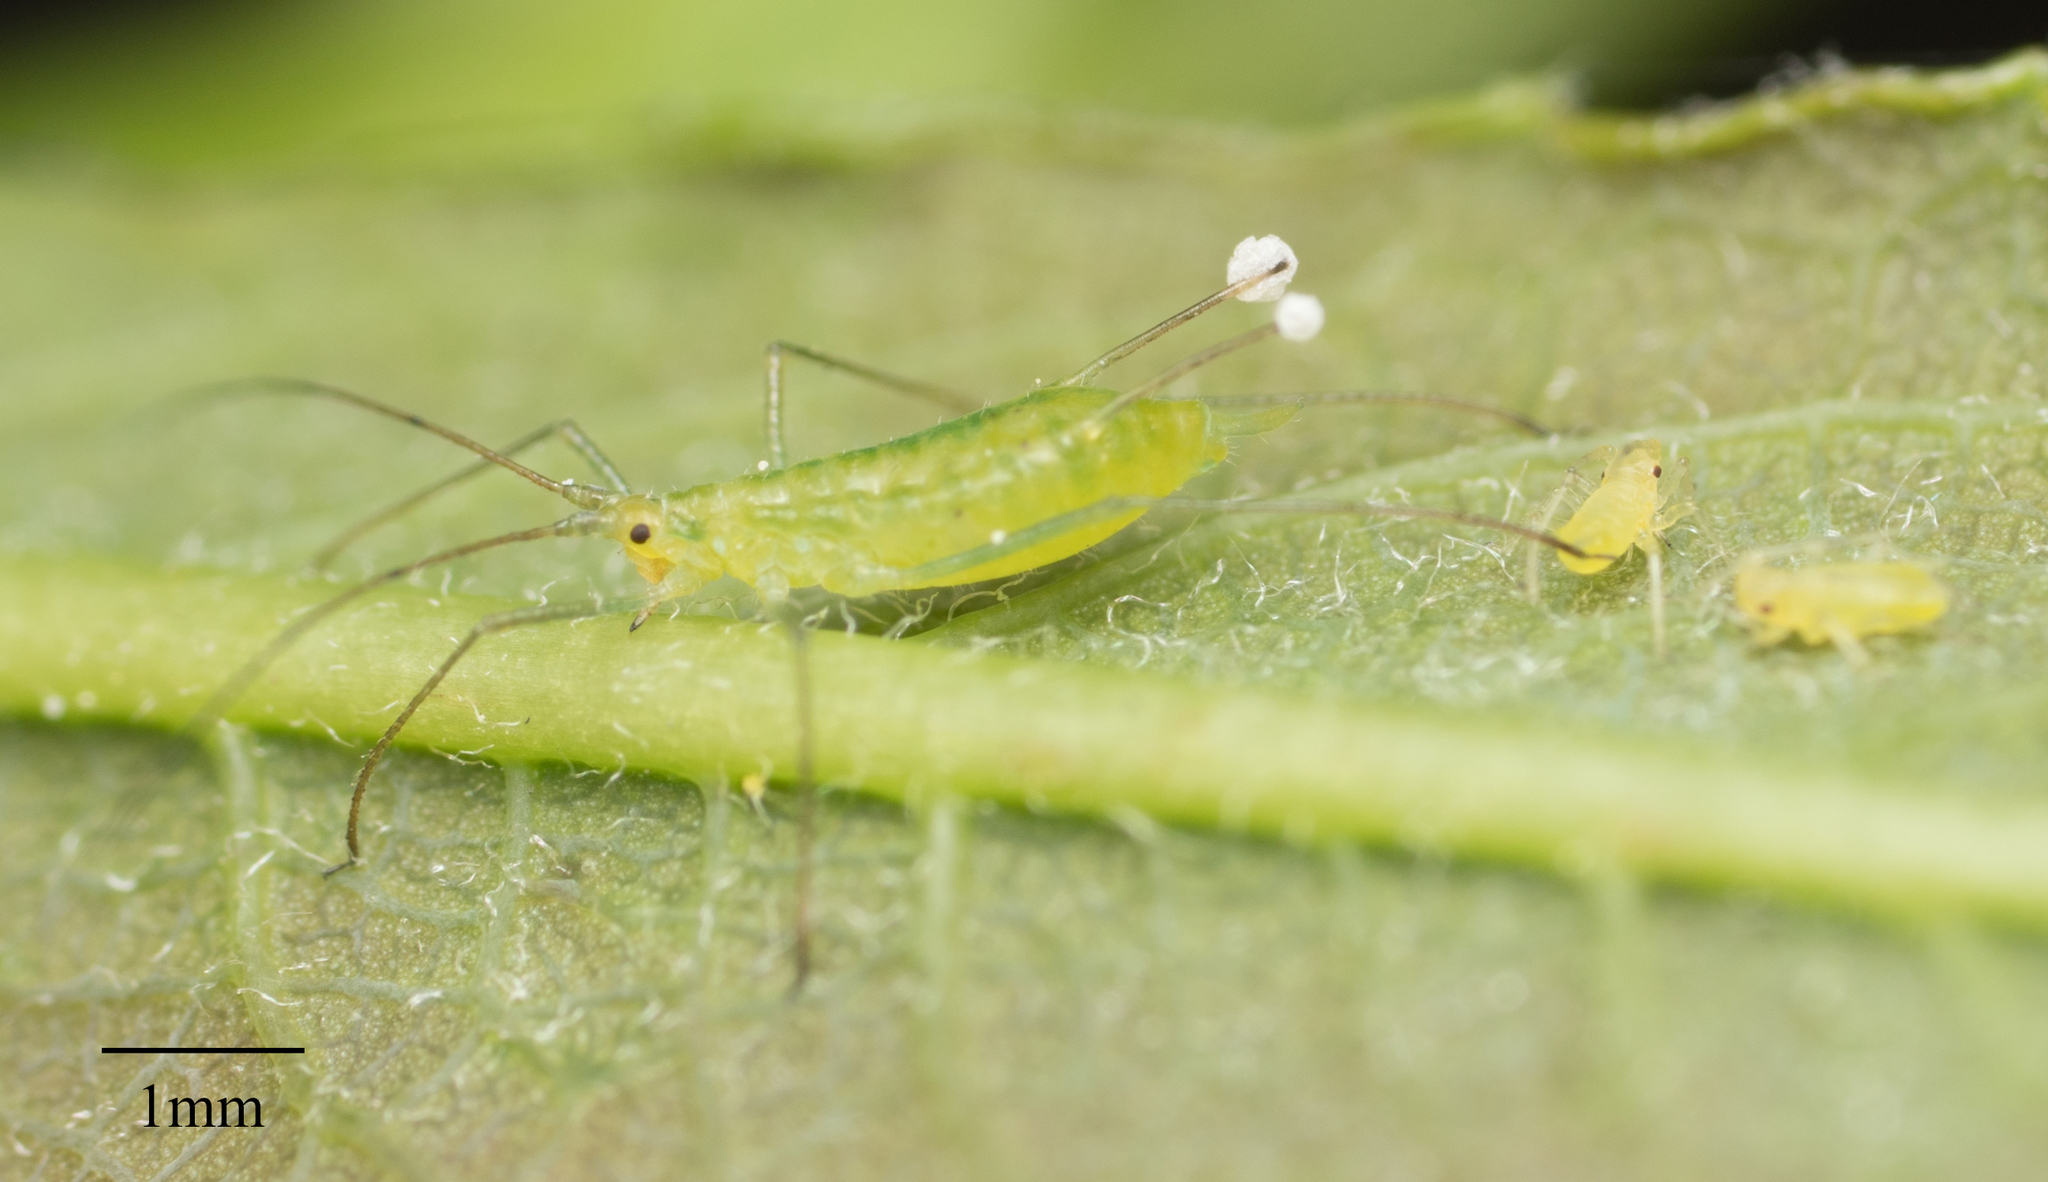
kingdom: Animalia
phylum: Arthropoda
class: Insecta
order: Hemiptera
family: Aphididae
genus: Macrosiphum
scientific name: Macrosiphum californicum
